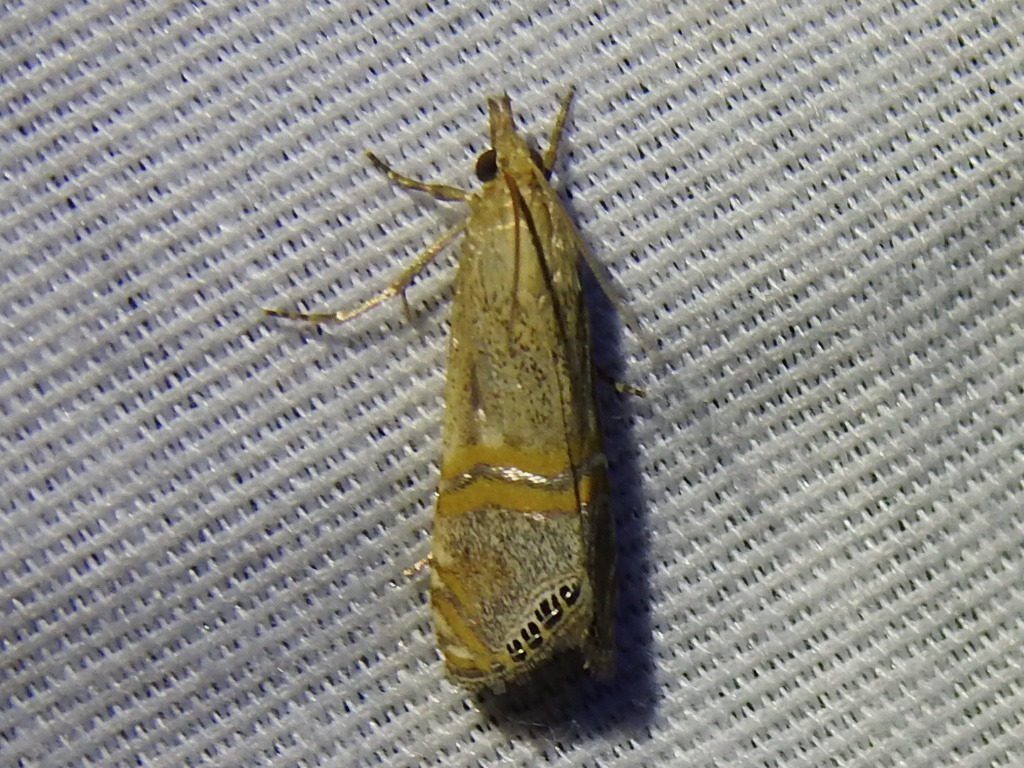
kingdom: Animalia
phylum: Arthropoda
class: Insecta
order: Lepidoptera
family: Crambidae
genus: Euchromius
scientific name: Euchromius ocellea
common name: Necklace veneer moth
